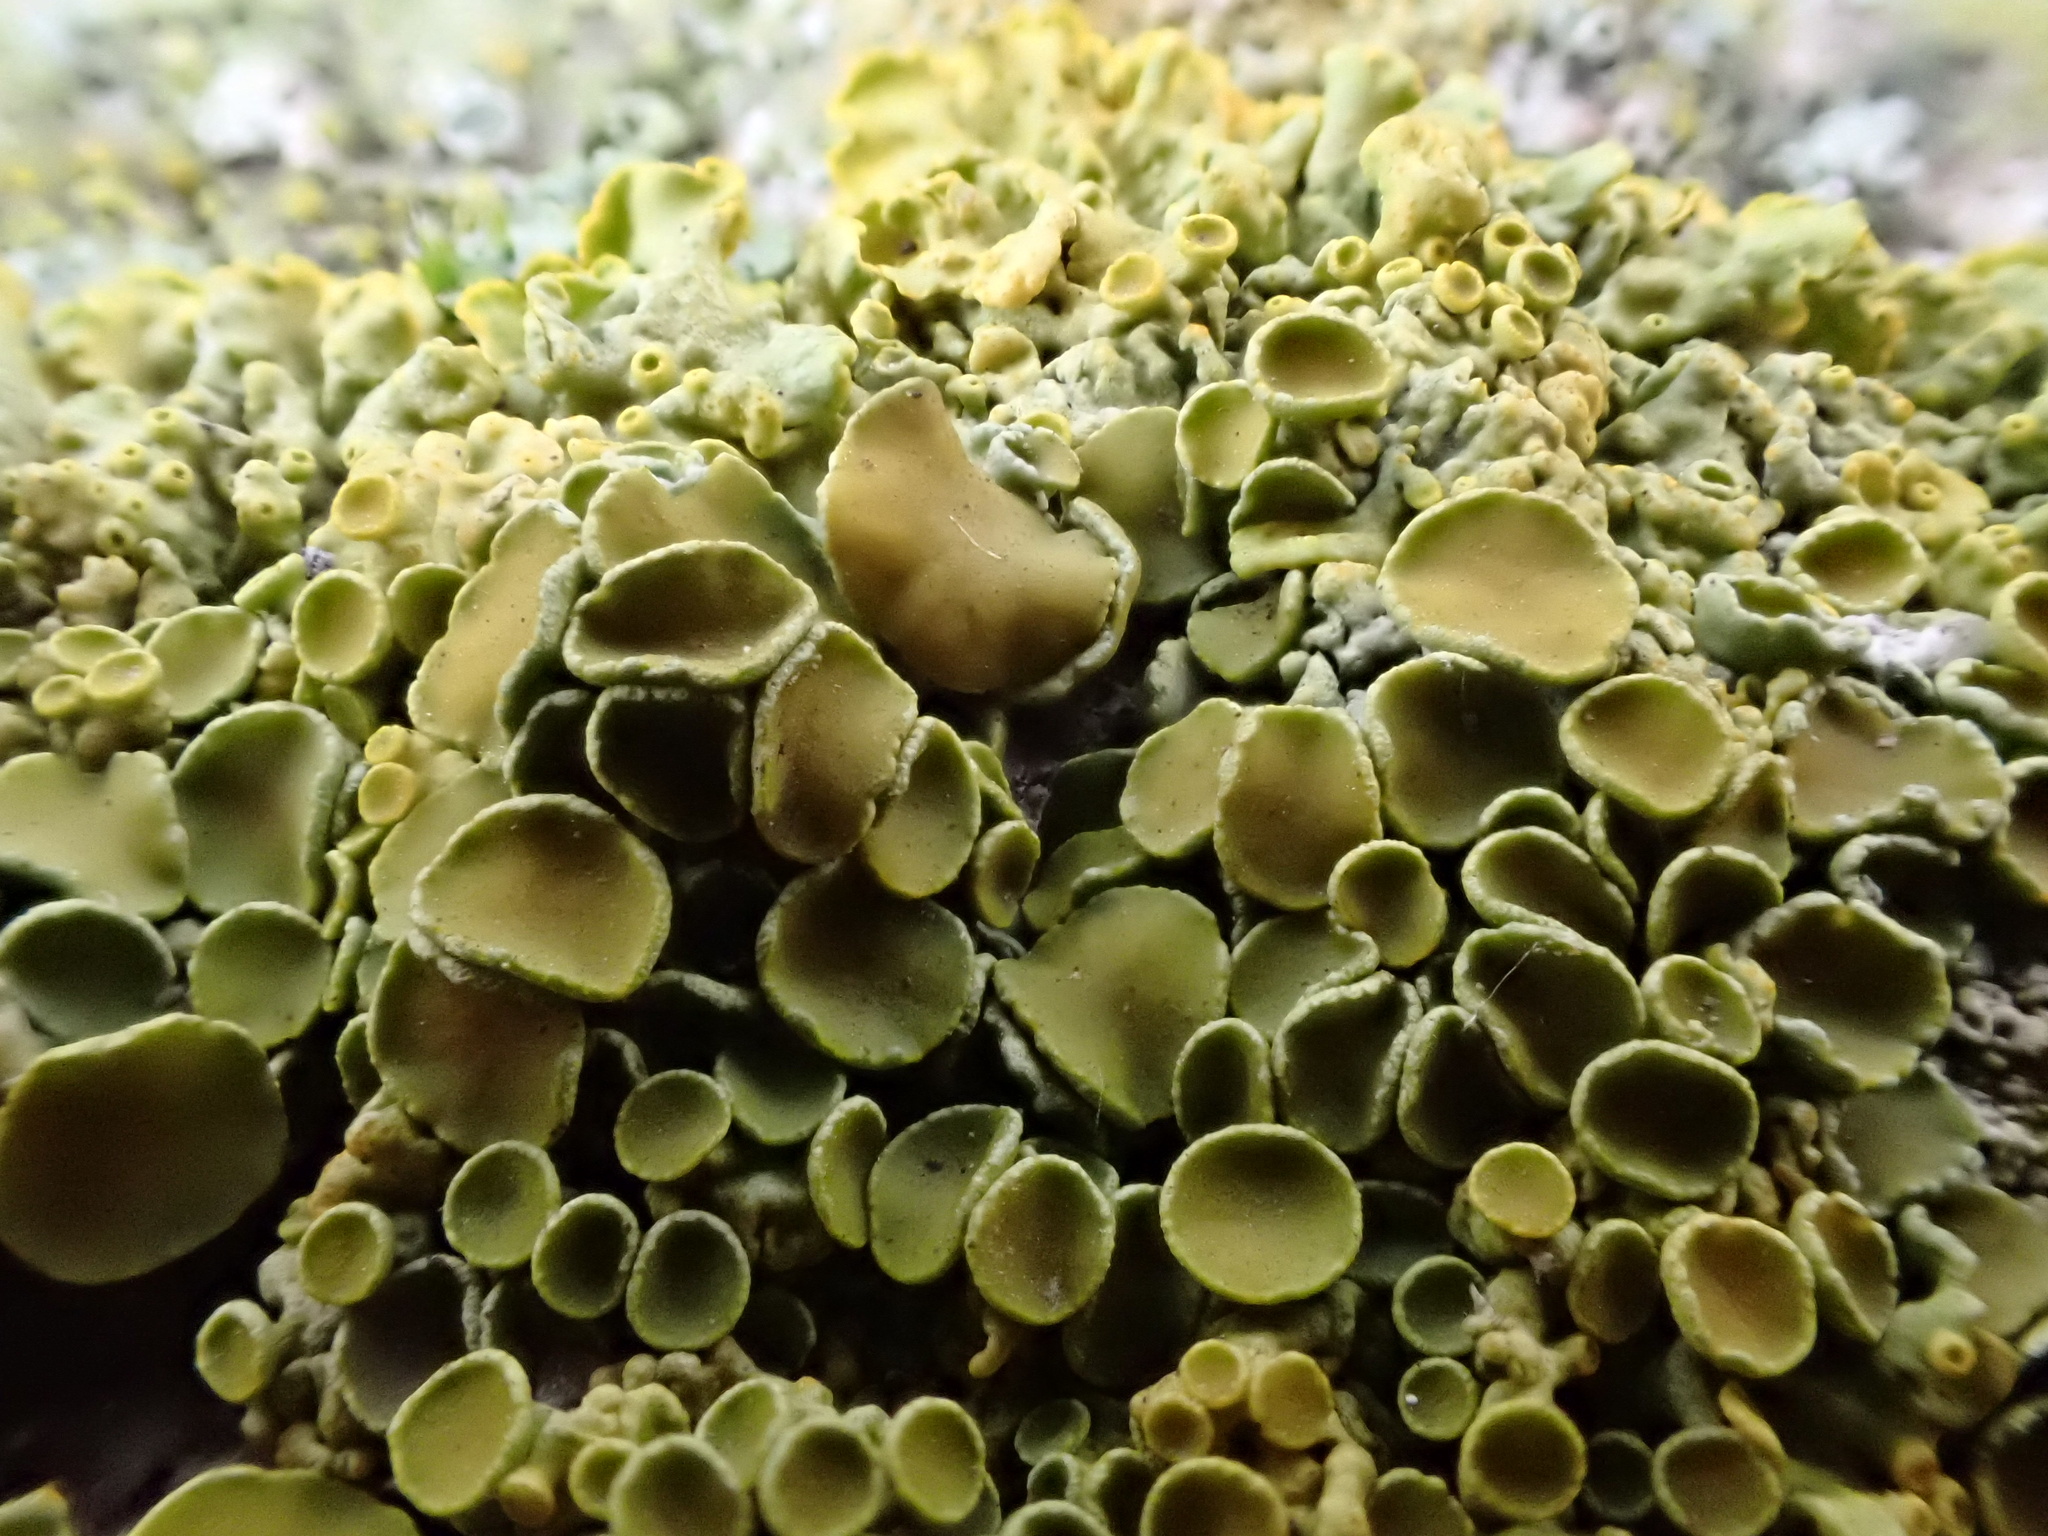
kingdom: Fungi
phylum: Ascomycota
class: Lecanoromycetes
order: Teloschistales
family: Teloschistaceae
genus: Xanthoria
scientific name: Xanthoria parietina
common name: Common orange lichen
